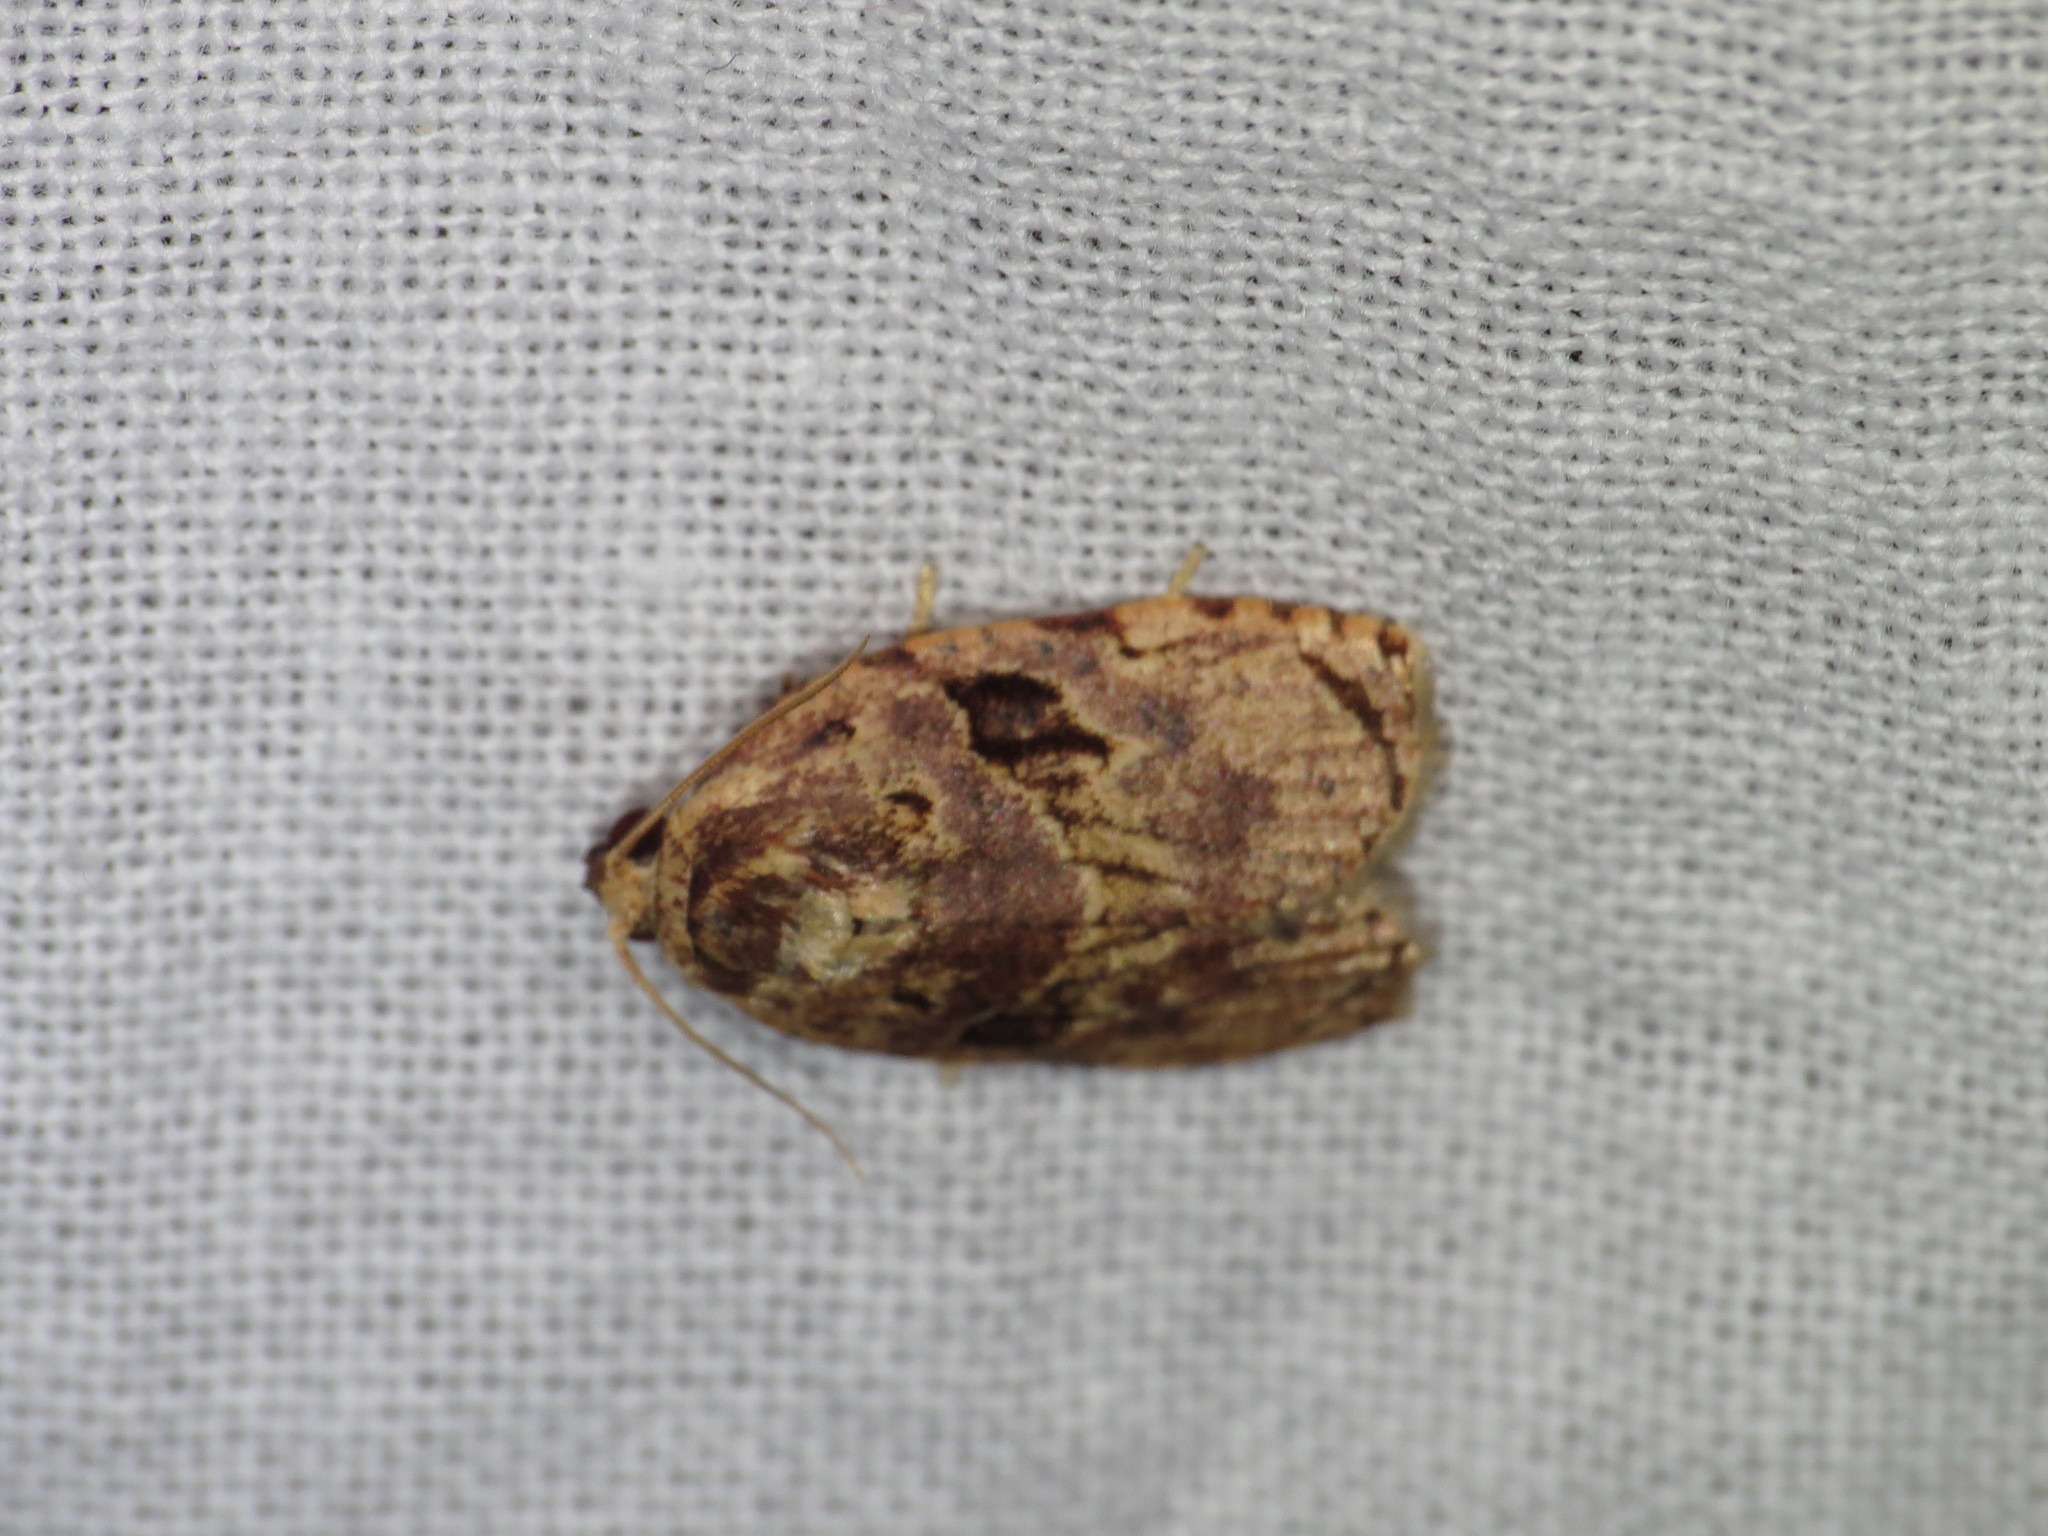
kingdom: Animalia
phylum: Arthropoda
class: Insecta
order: Lepidoptera
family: Tortricidae
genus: Homona
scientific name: Homona mermerodes
